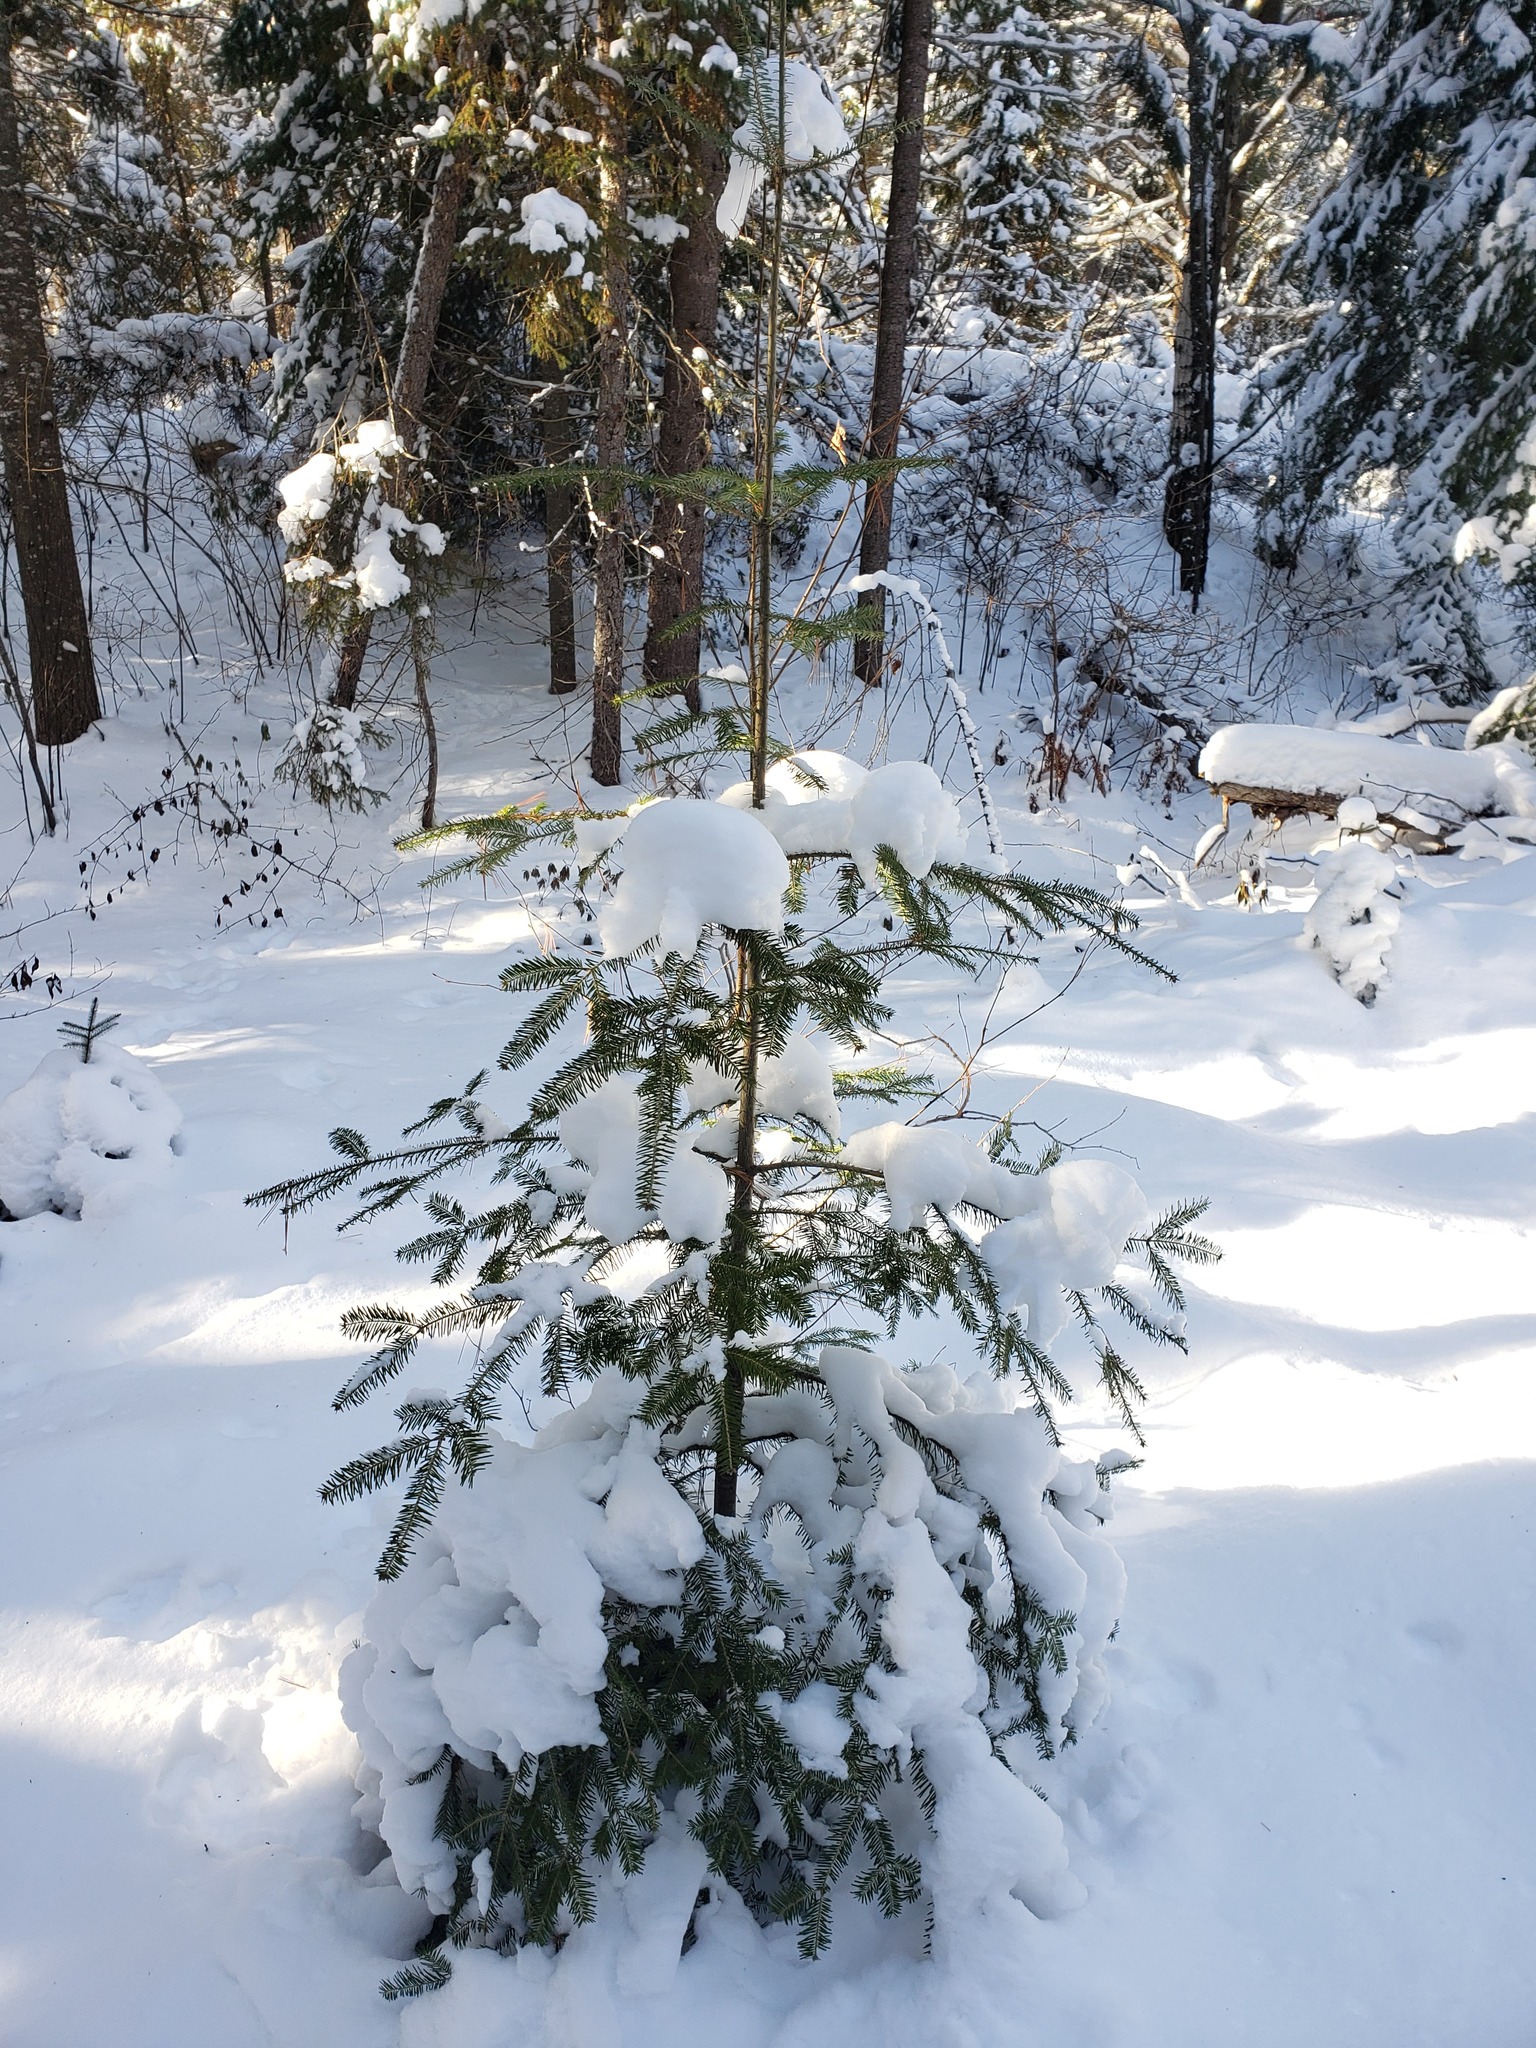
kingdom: Plantae
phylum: Tracheophyta
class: Pinopsida
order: Pinales
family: Pinaceae
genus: Abies
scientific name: Abies balsamea
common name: Balsam fir
